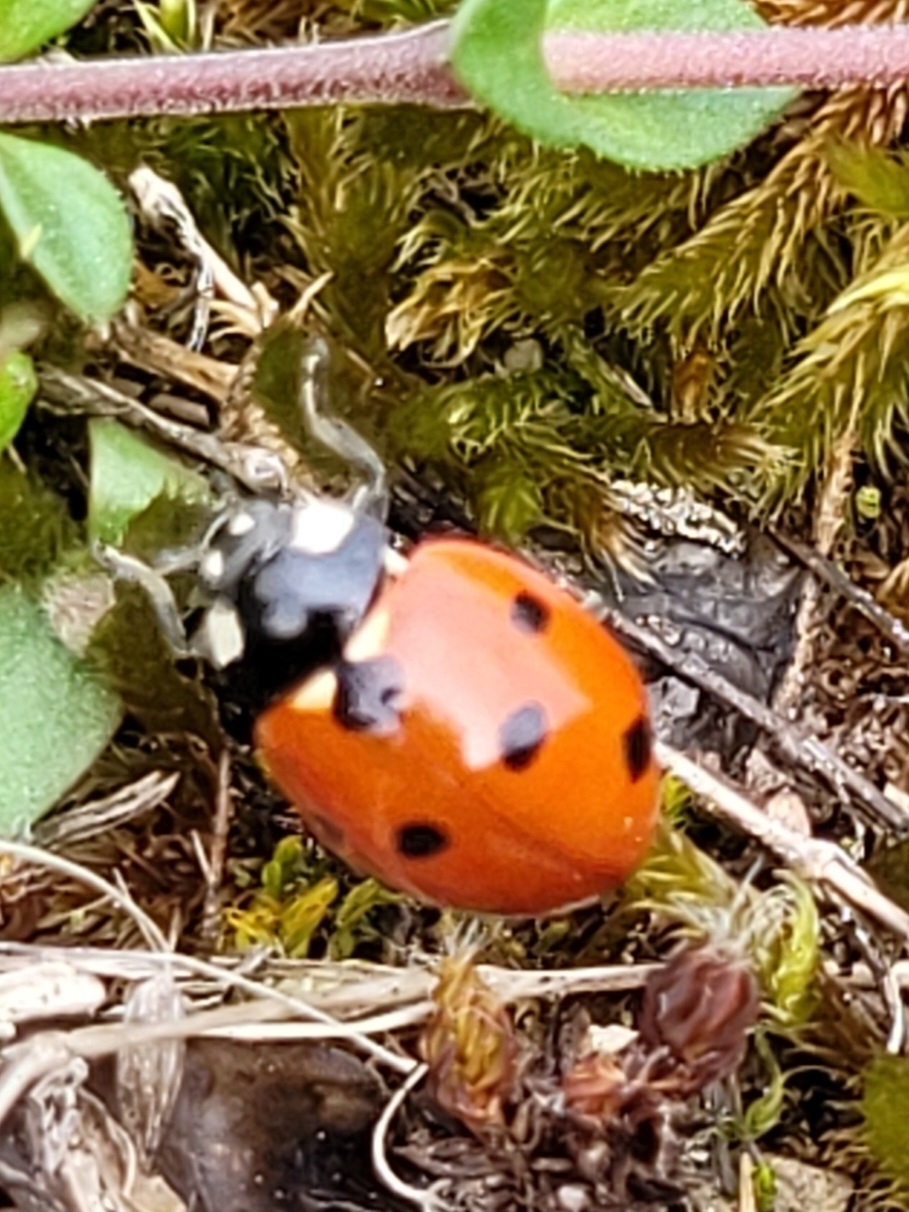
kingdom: Animalia
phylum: Arthropoda
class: Insecta
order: Coleoptera
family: Coccinellidae
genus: Coccinella
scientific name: Coccinella septempunctata
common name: Sevenspotted lady beetle
